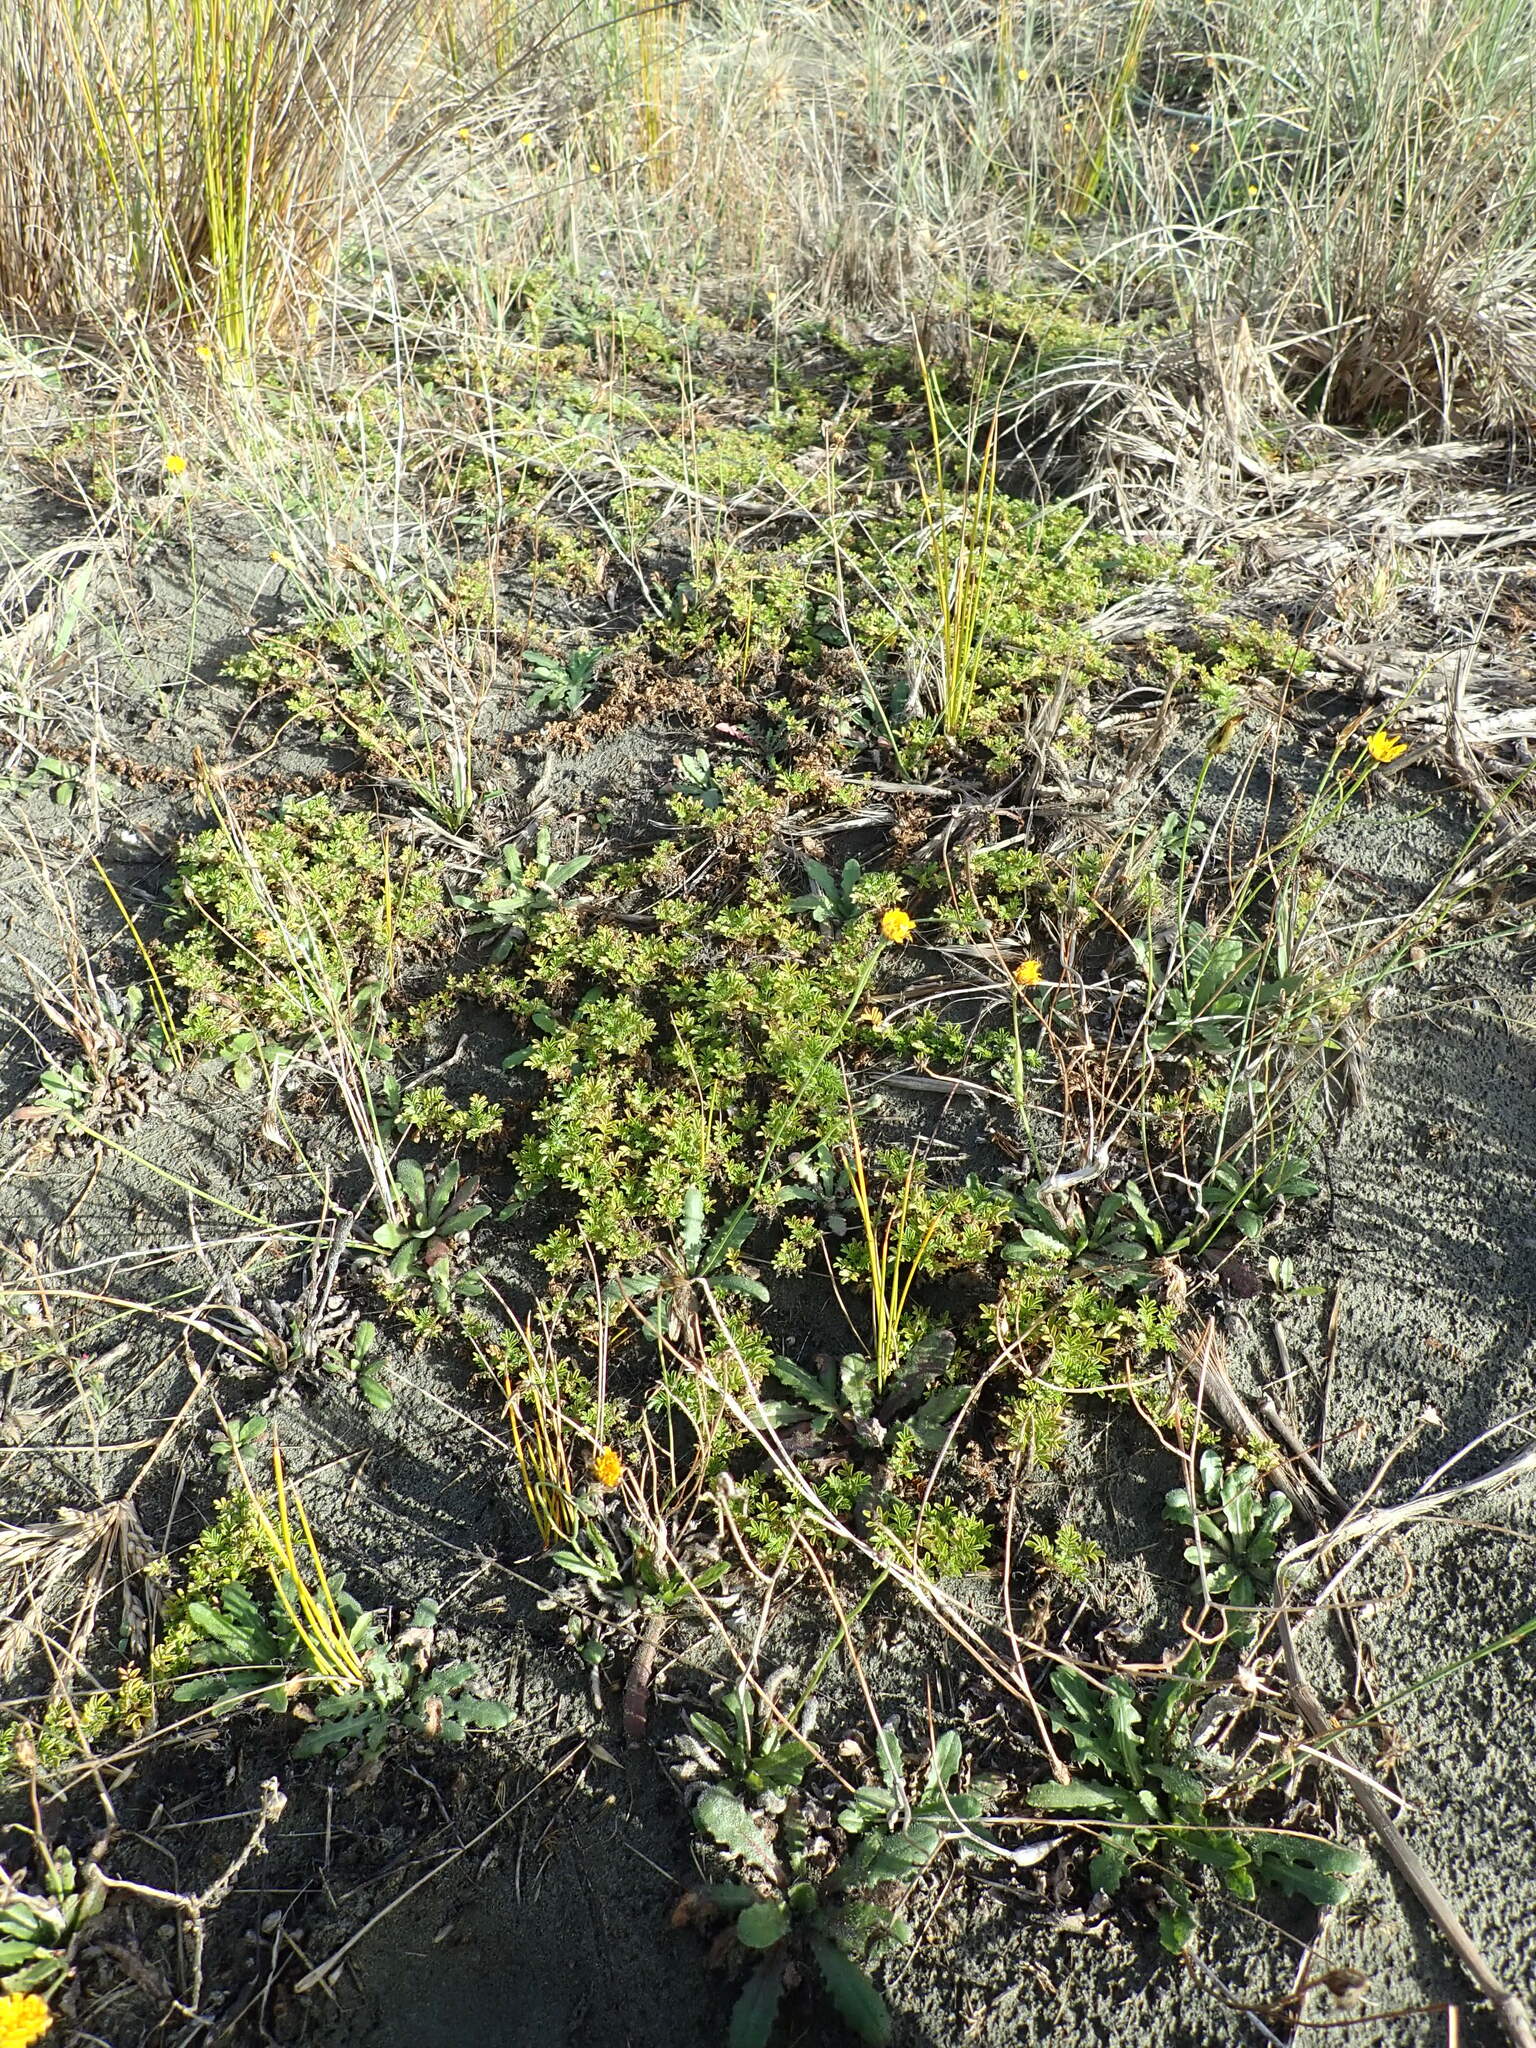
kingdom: Plantae
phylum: Tracheophyta
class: Magnoliopsida
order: Rosales
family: Rosaceae
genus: Acaena
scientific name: Acaena novae-zelandiae
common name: Pirri-pirri-bur
